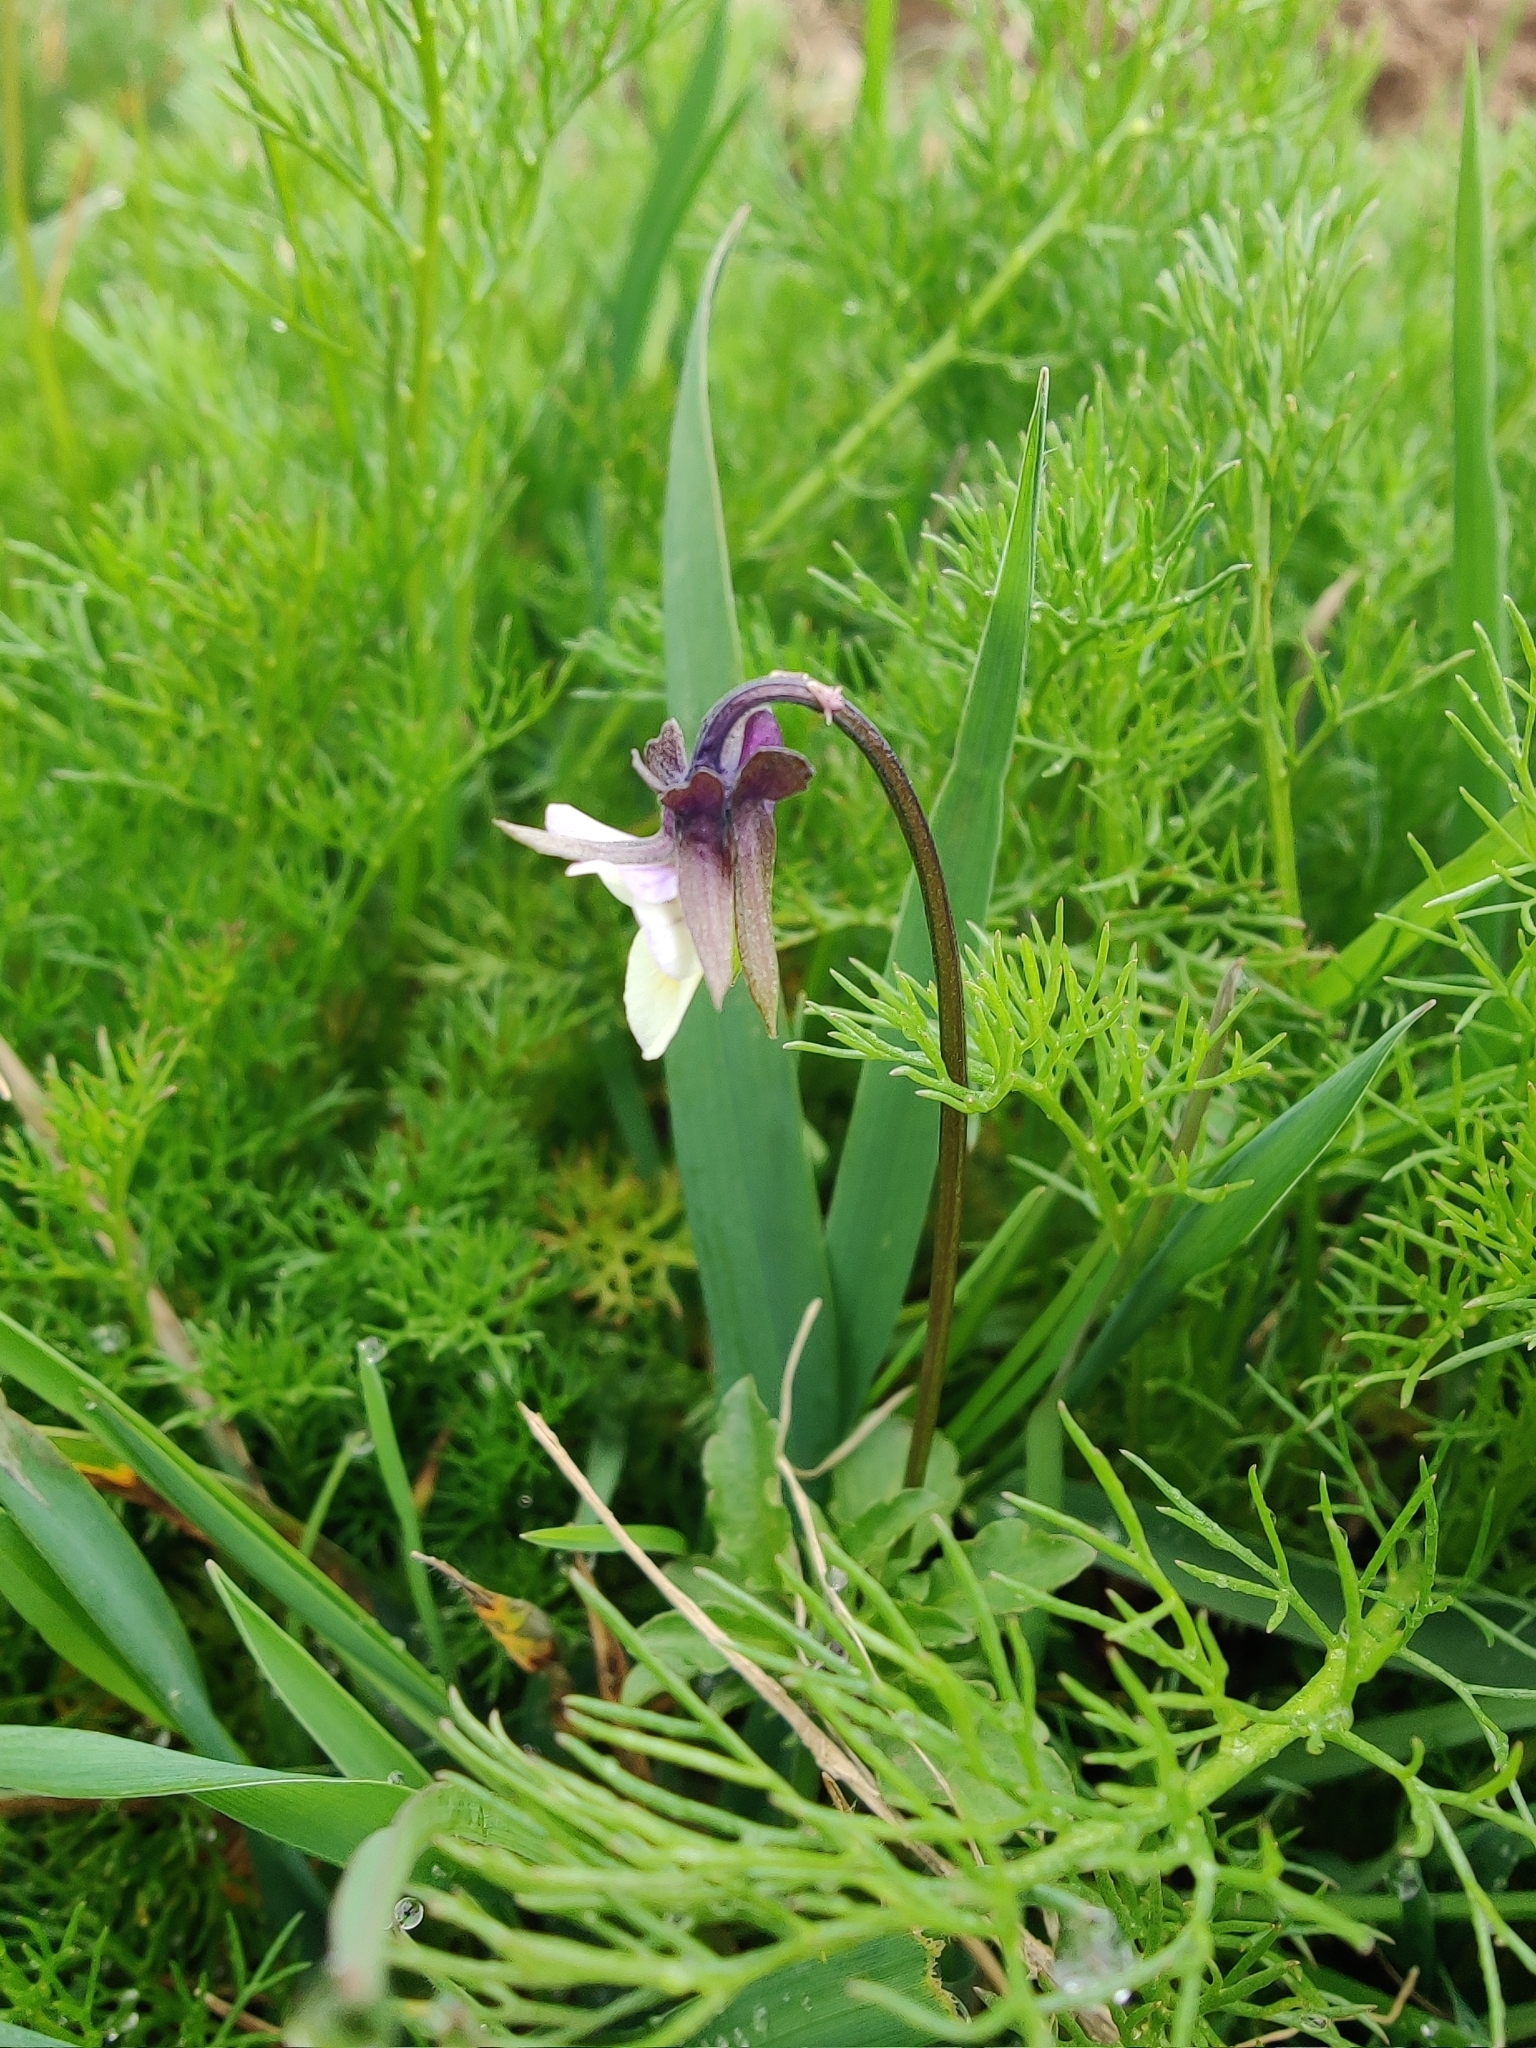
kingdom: Plantae
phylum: Tracheophyta
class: Magnoliopsida
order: Malpighiales
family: Violaceae
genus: Viola
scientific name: Viola arvensis
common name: Field pansy
